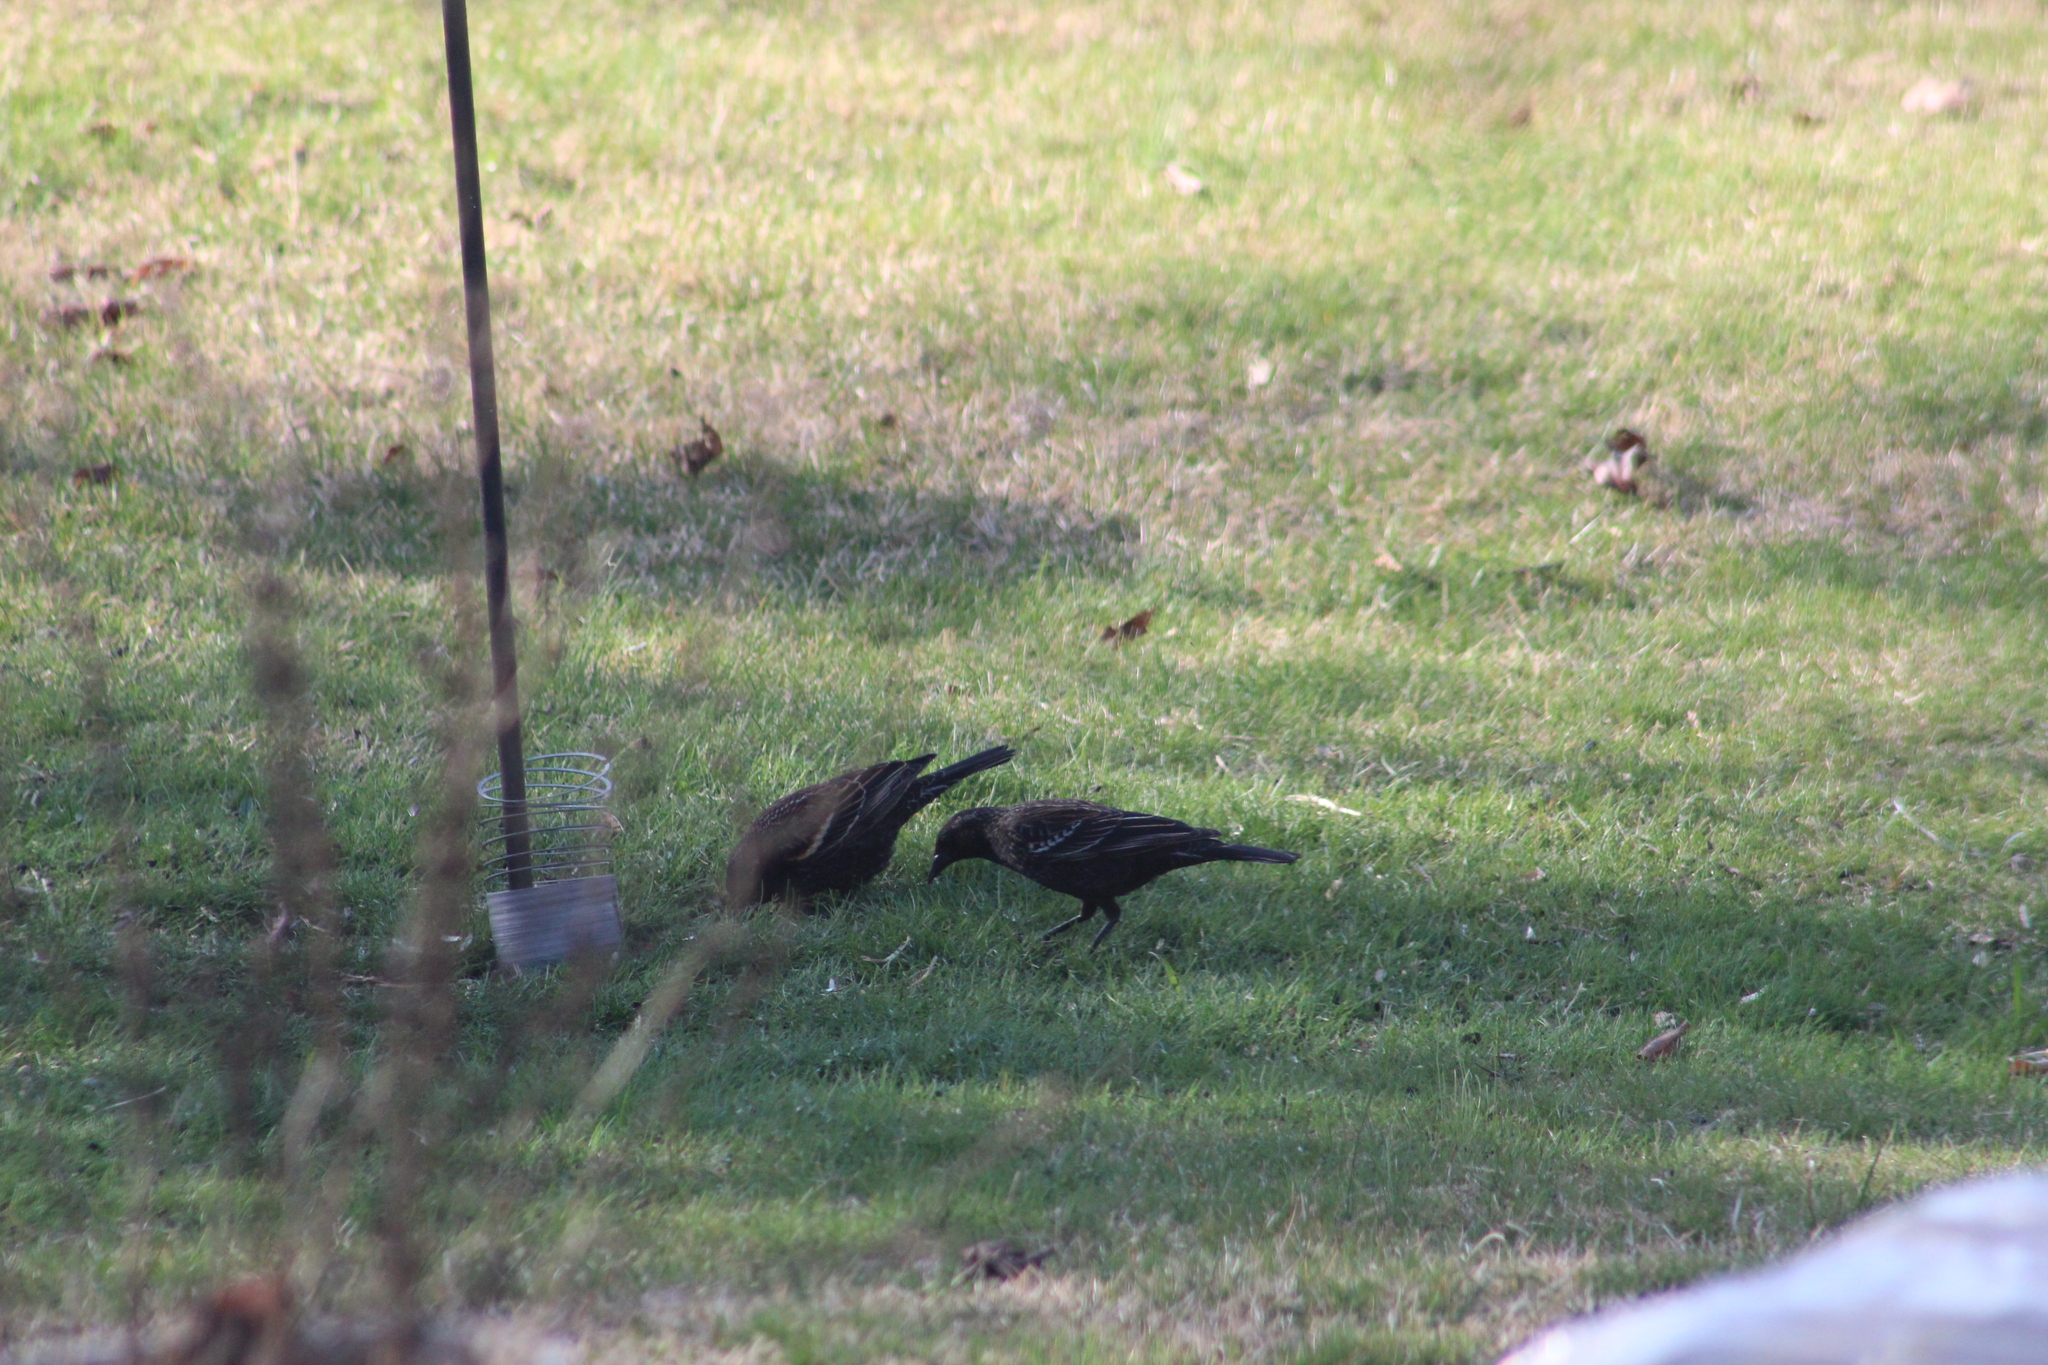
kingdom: Animalia
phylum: Chordata
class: Aves
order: Passeriformes
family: Icteridae
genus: Agelaius
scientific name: Agelaius phoeniceus
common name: Red-winged blackbird
